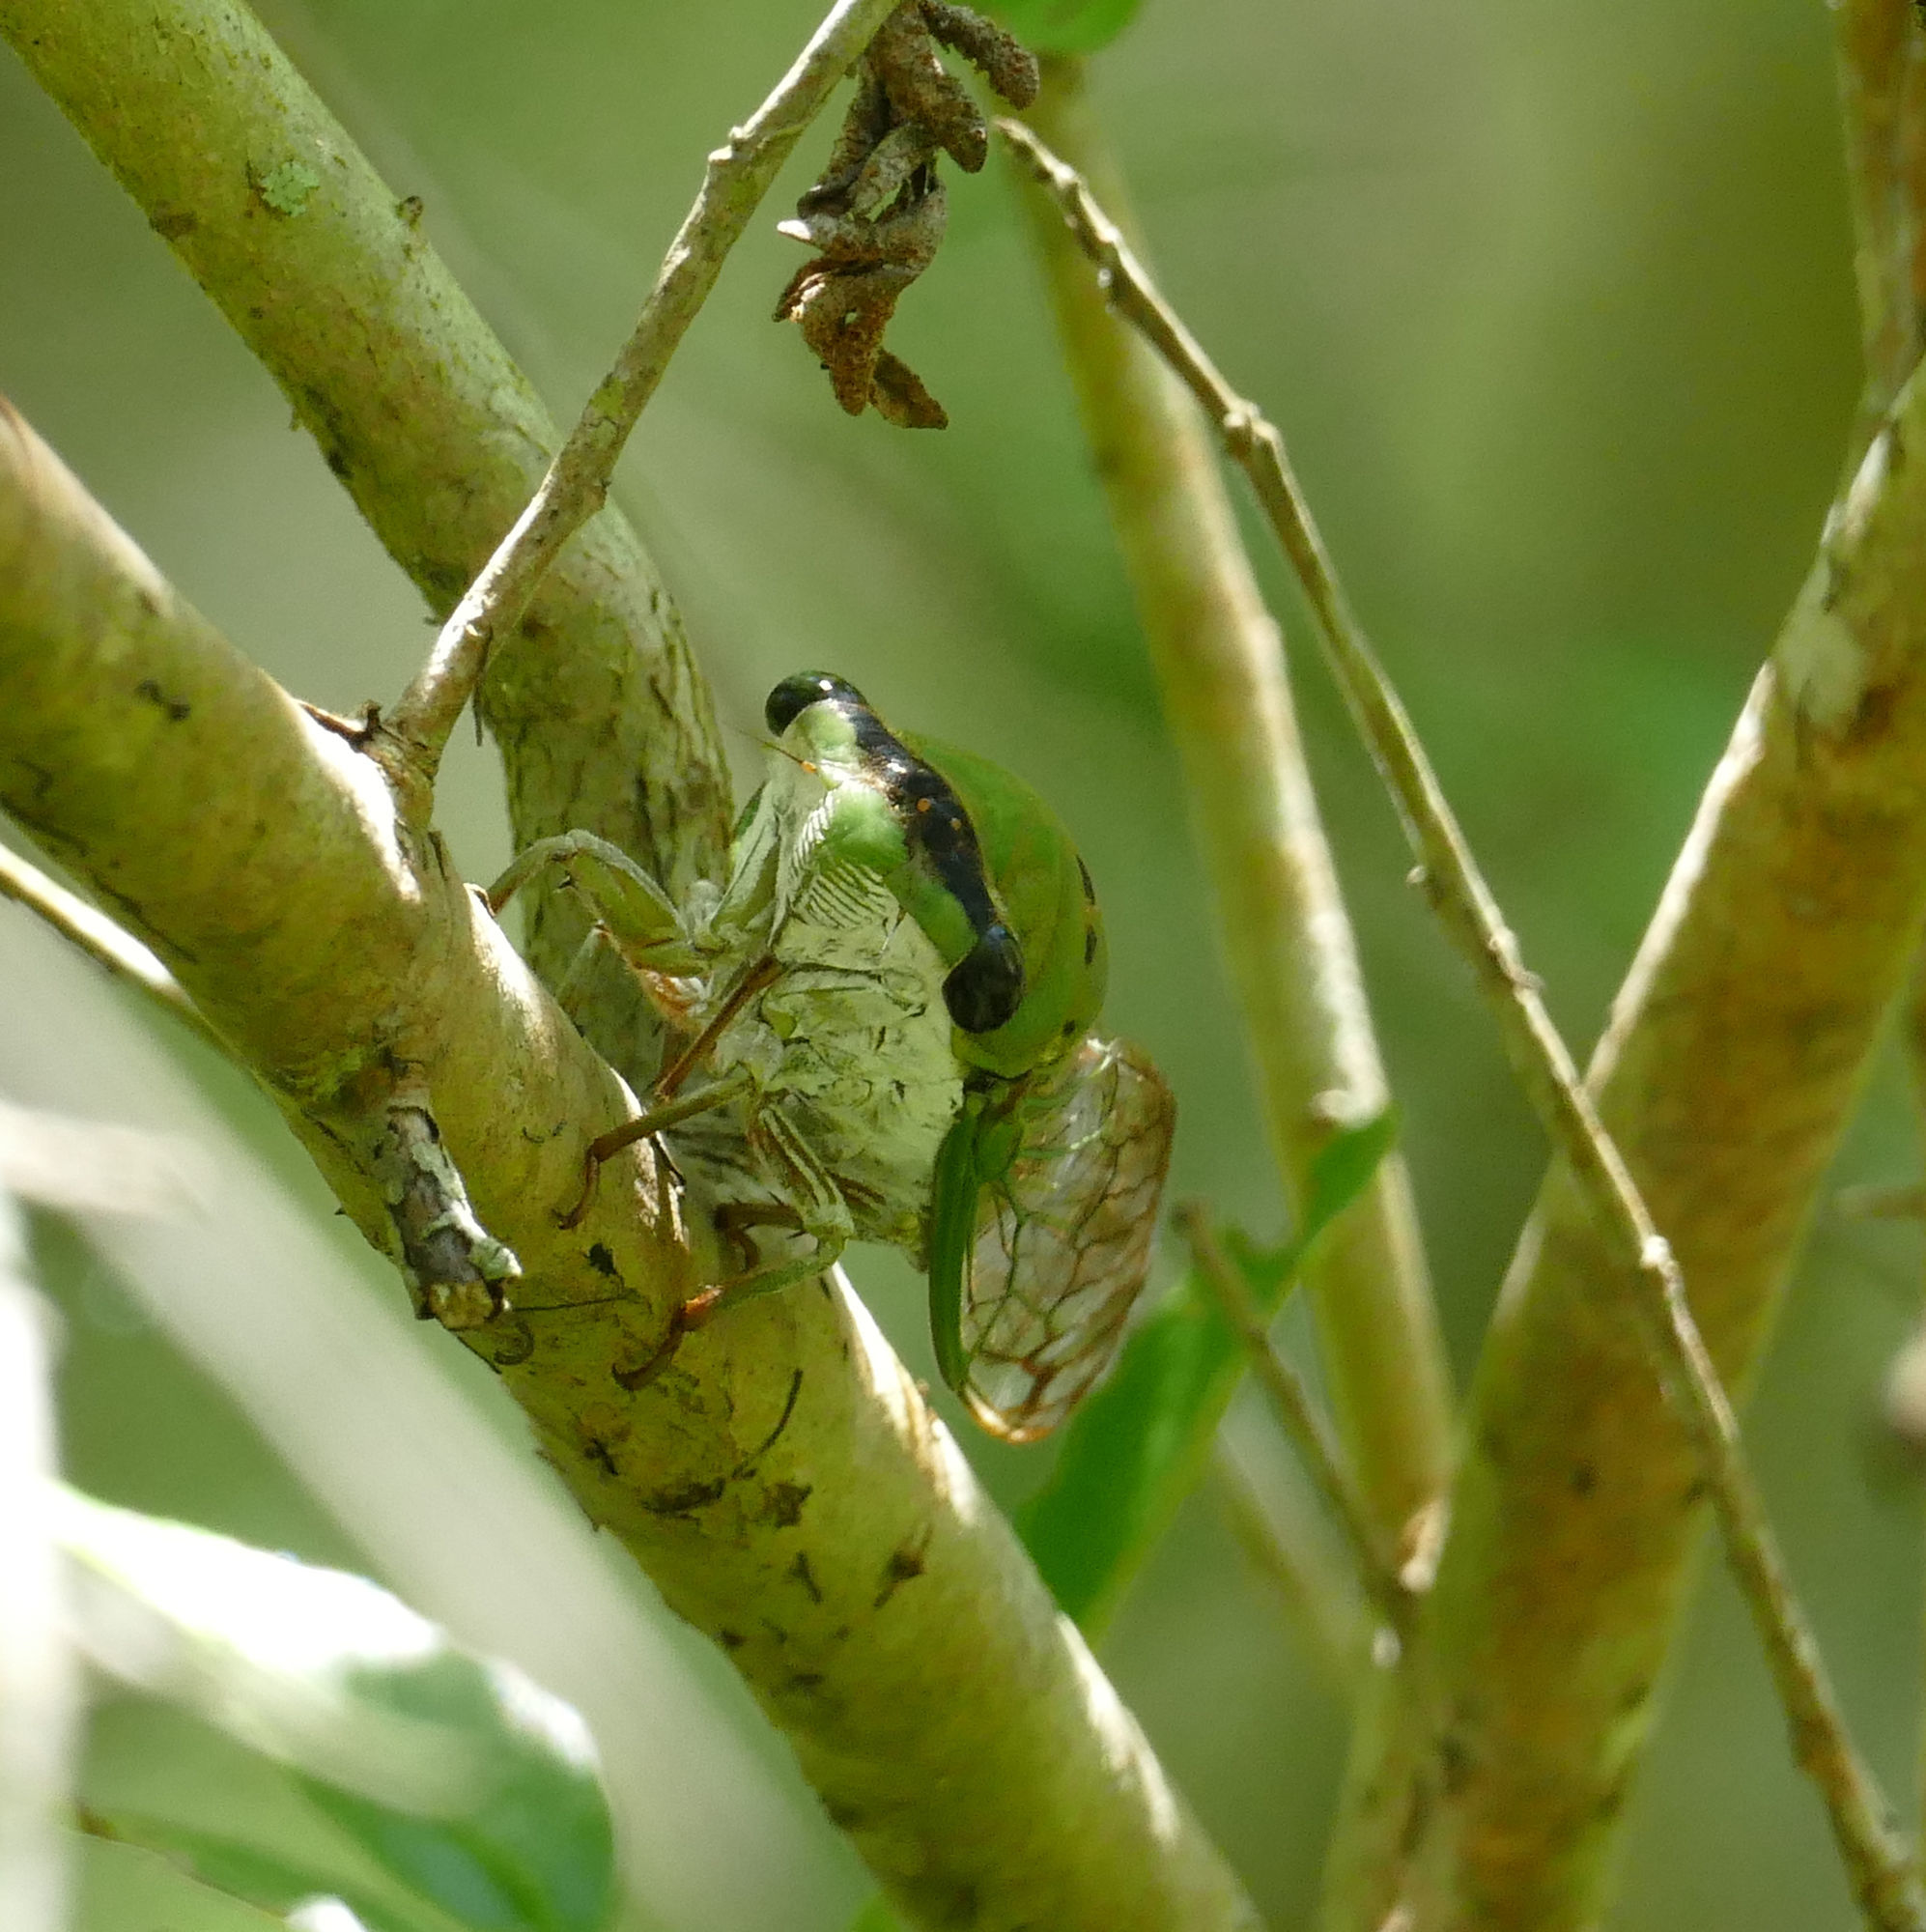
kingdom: Animalia
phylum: Arthropoda
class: Insecta
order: Hemiptera
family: Cicadidae
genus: Neotibicen
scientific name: Neotibicen superbus
